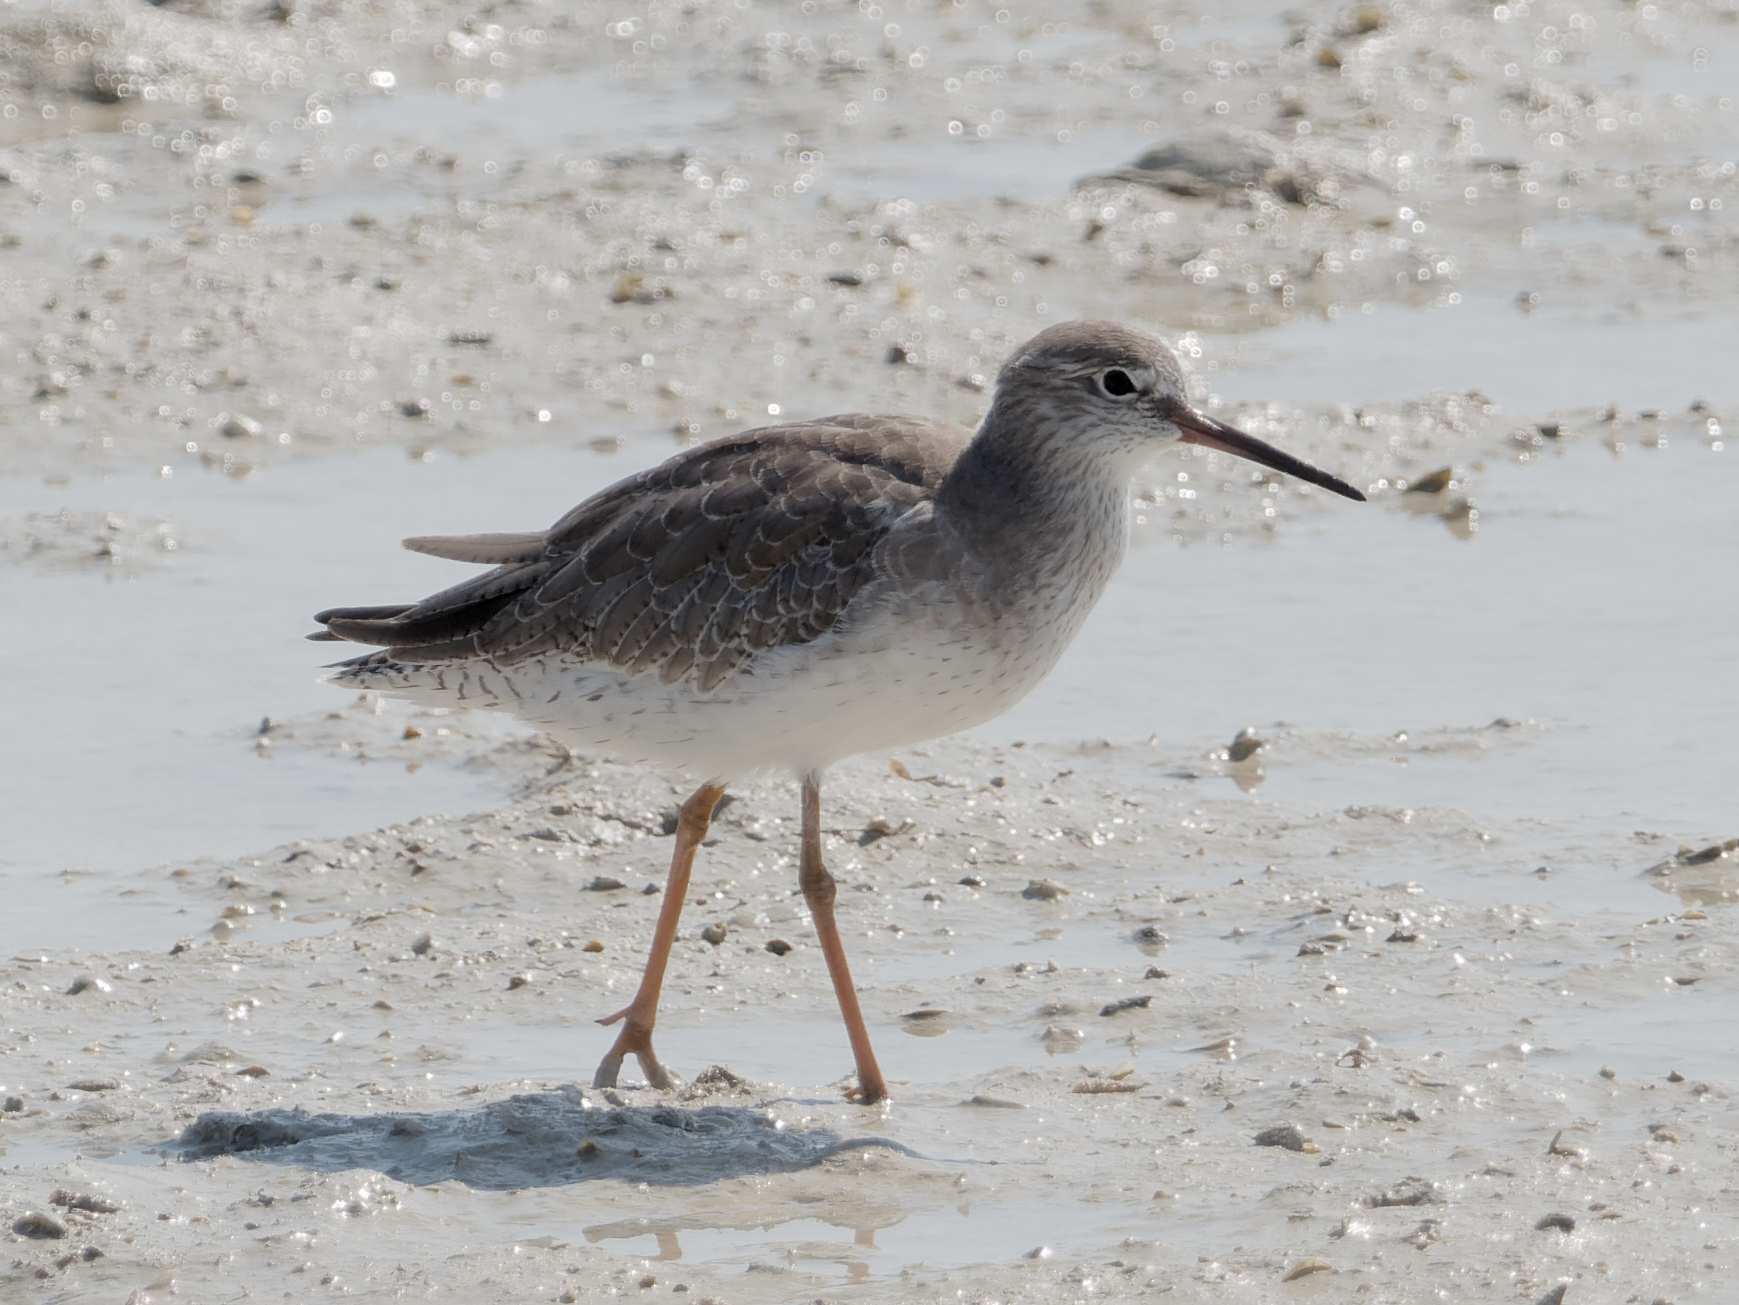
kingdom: Animalia
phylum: Chordata
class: Aves
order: Charadriiformes
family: Scolopacidae
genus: Tringa
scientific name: Tringa totanus
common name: Common redshank
